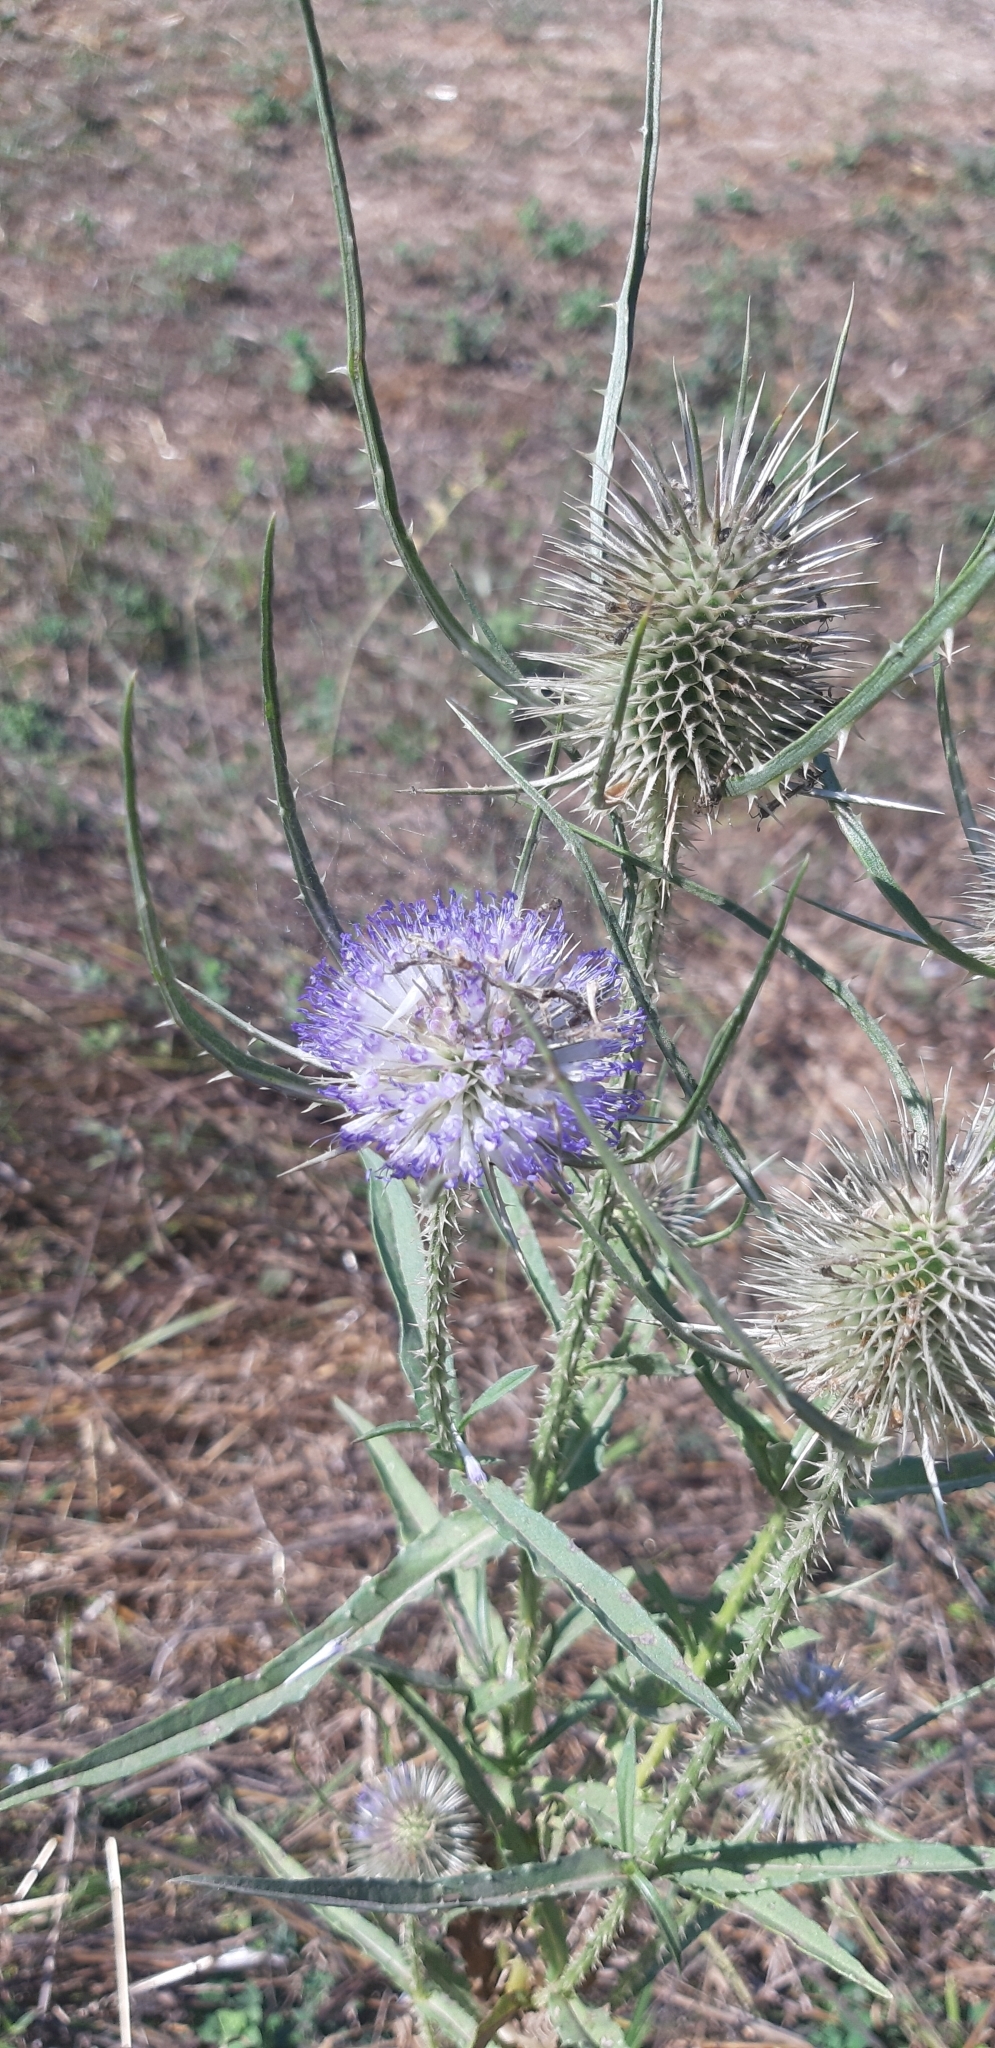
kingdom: Plantae
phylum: Tracheophyta
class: Magnoliopsida
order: Dipsacales
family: Caprifoliaceae
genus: Dipsacus
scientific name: Dipsacus fullonum
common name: Teasel
